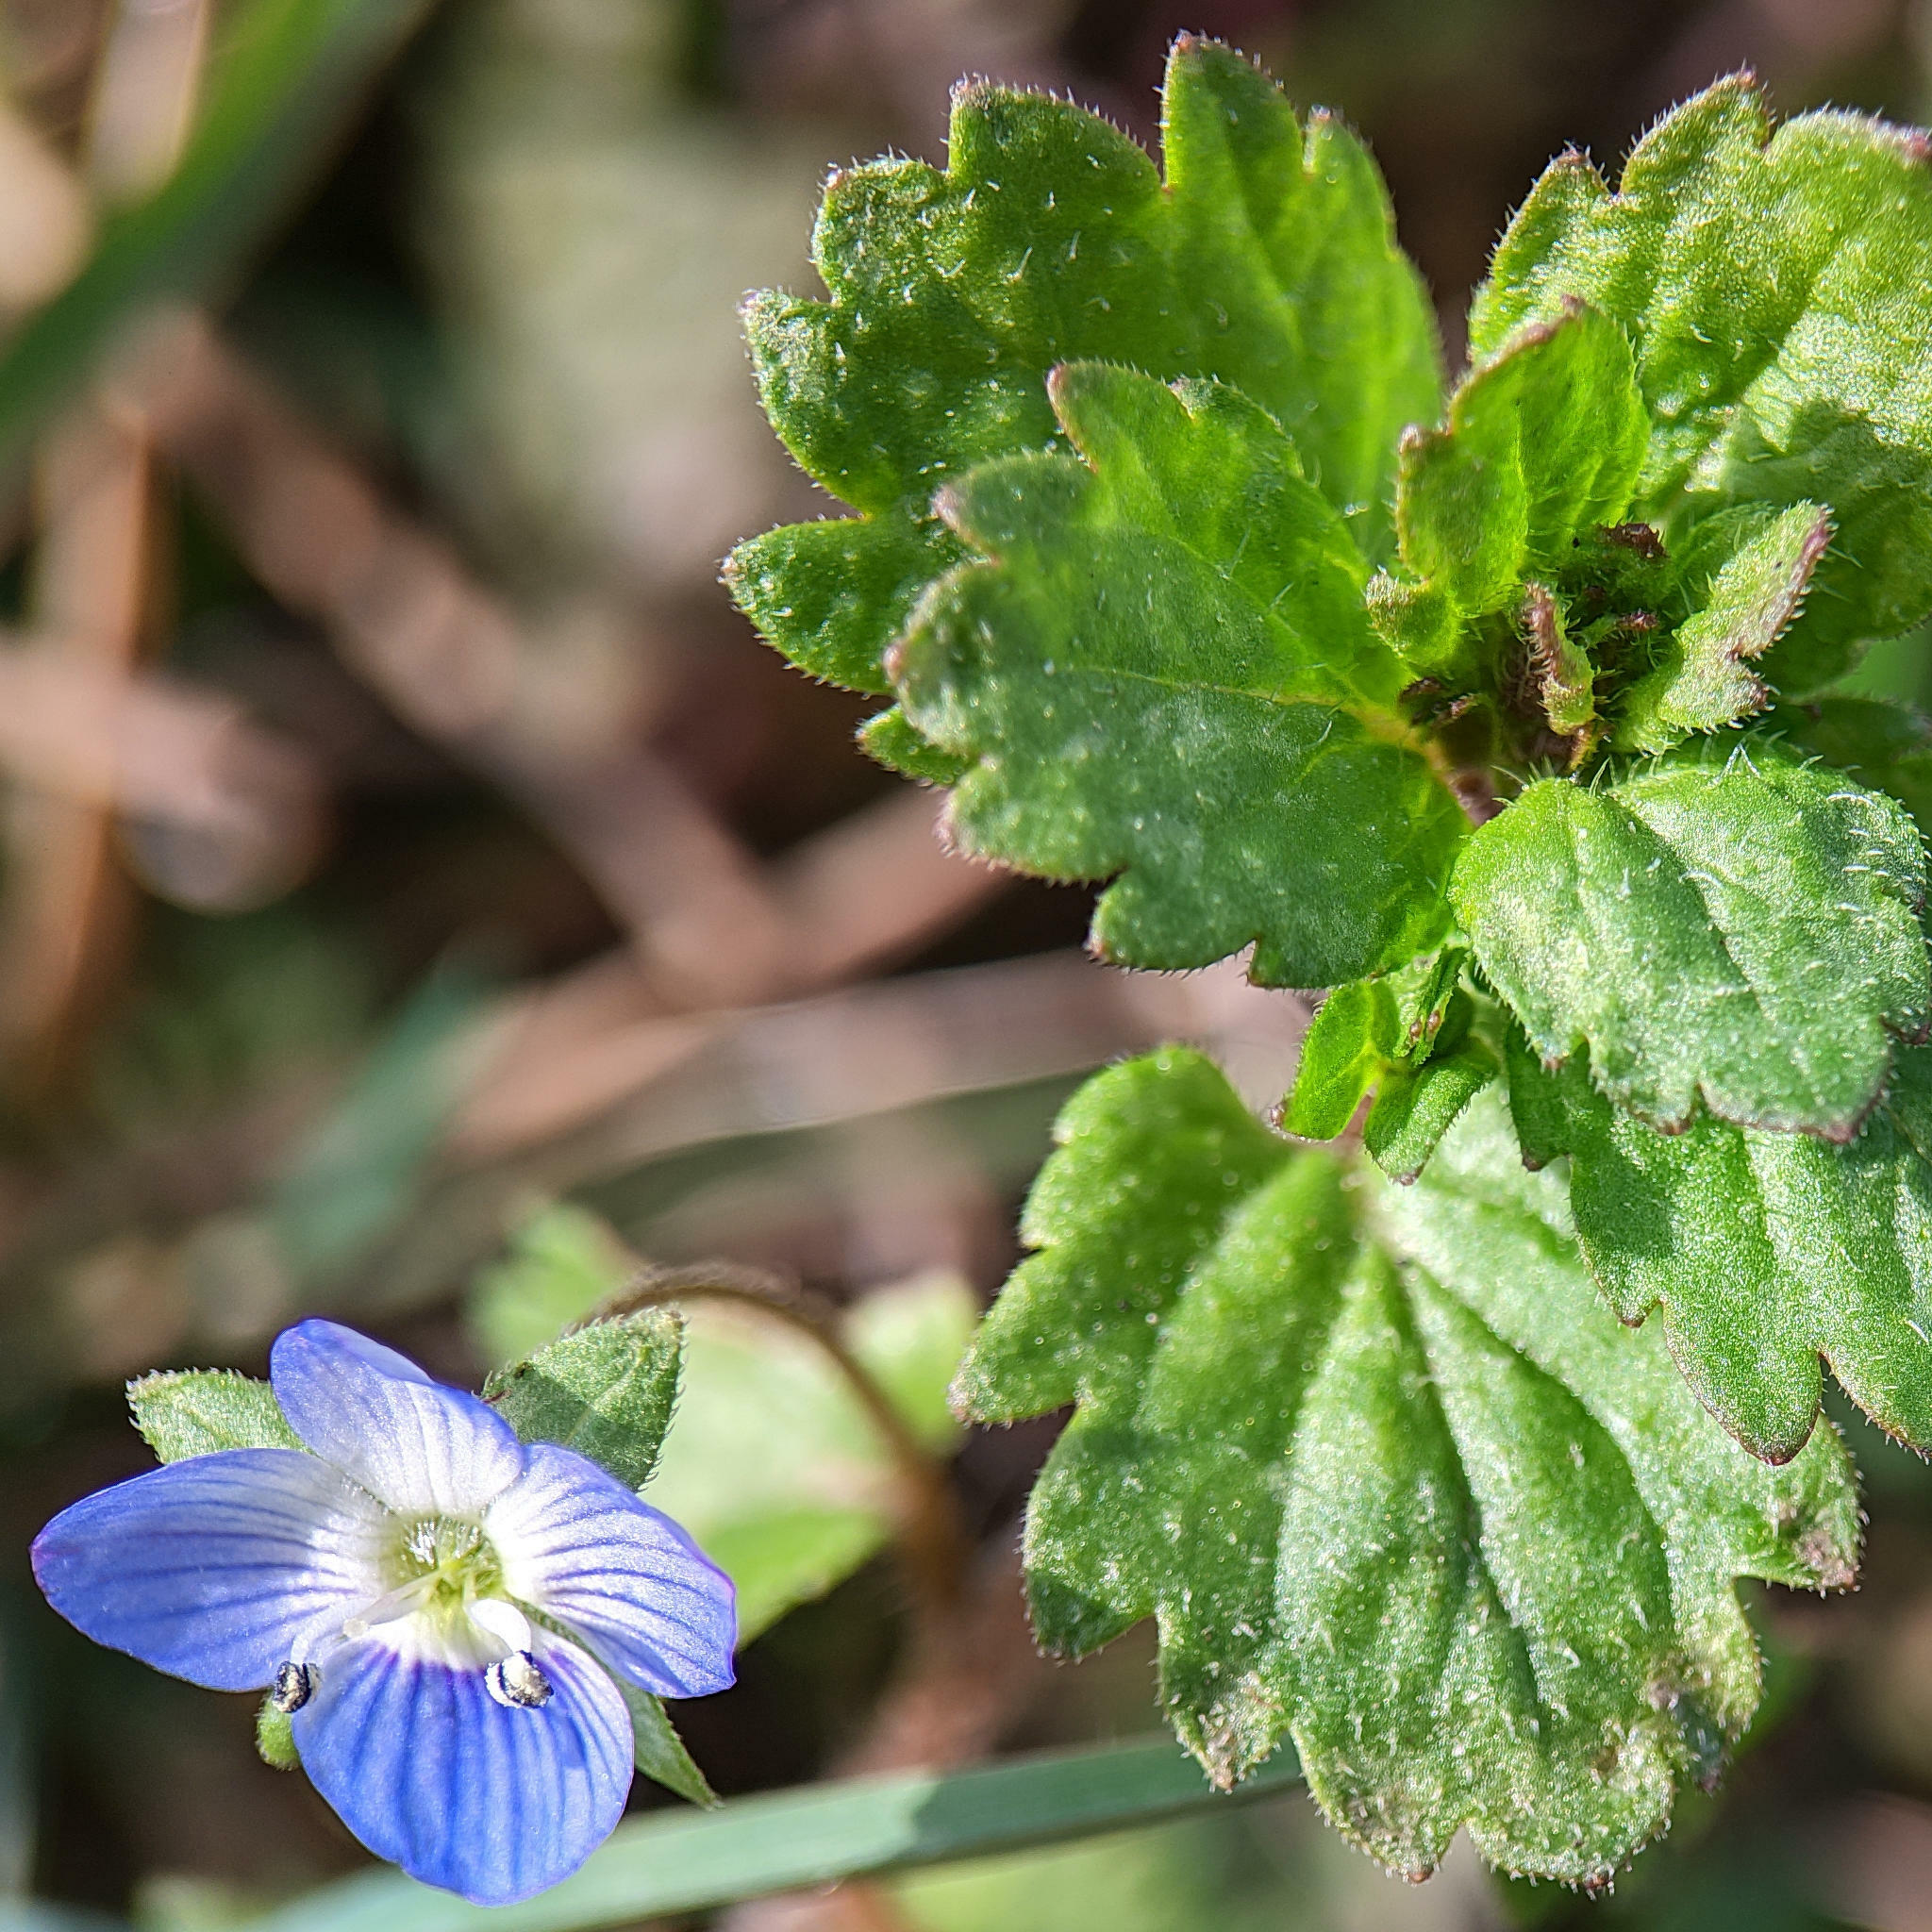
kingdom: Plantae
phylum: Tracheophyta
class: Magnoliopsida
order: Lamiales
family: Plantaginaceae
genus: Veronica
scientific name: Veronica persica
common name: Common field-speedwell
